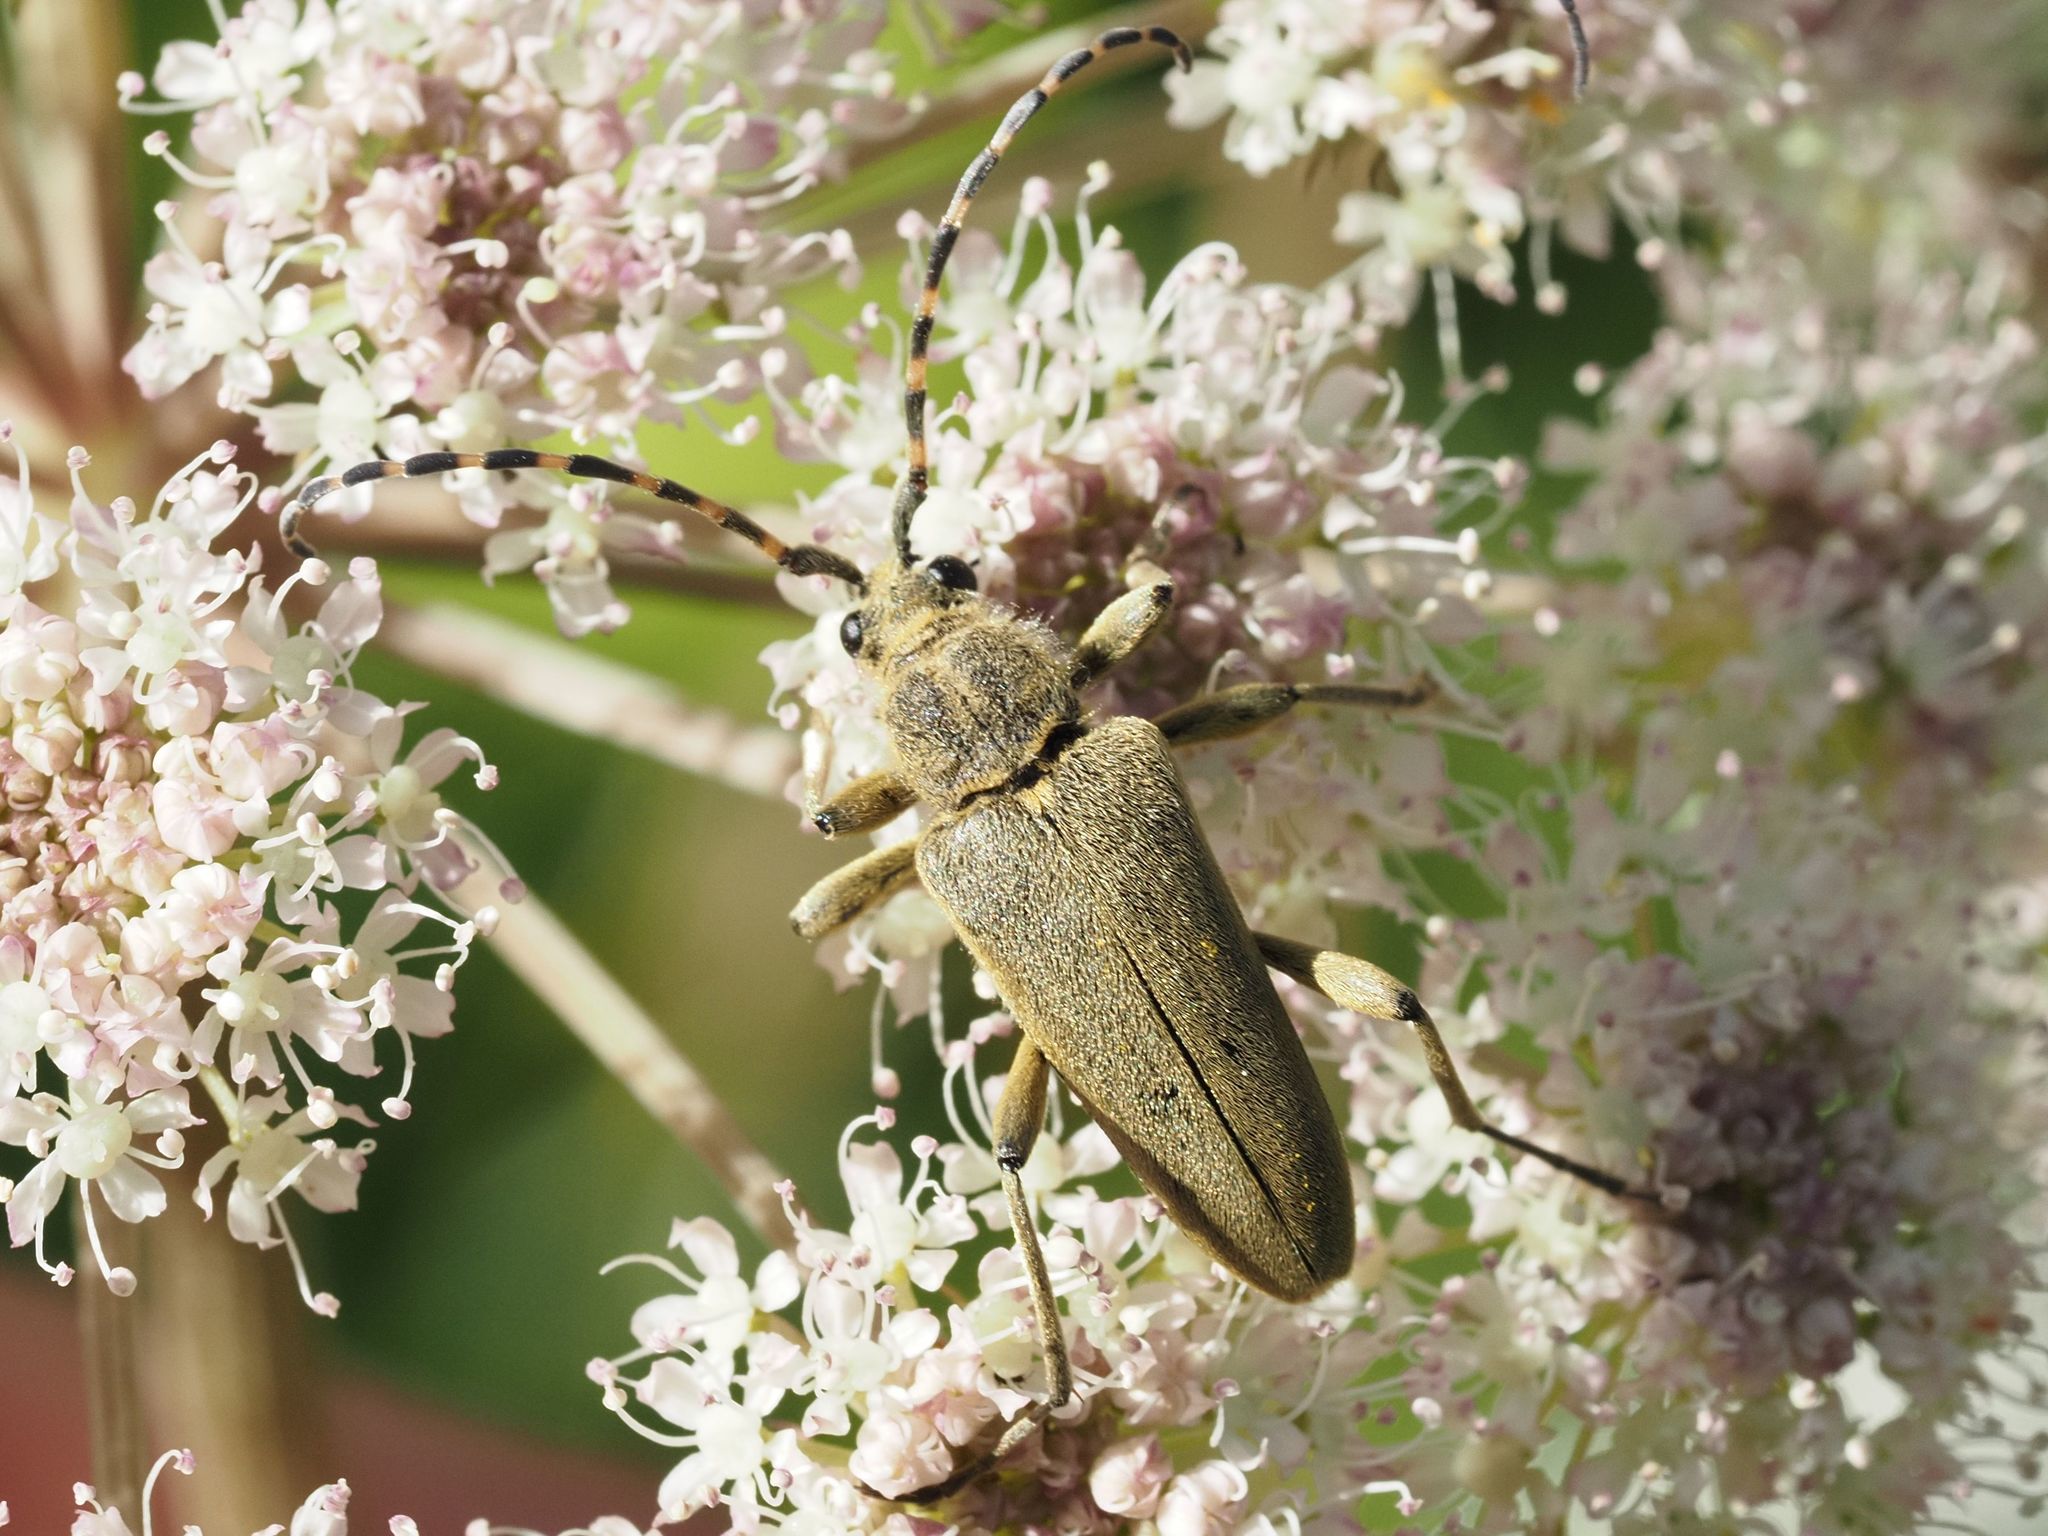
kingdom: Animalia
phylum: Arthropoda
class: Insecta
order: Coleoptera
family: Cerambycidae
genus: Lepturobosca
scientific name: Lepturobosca virens
